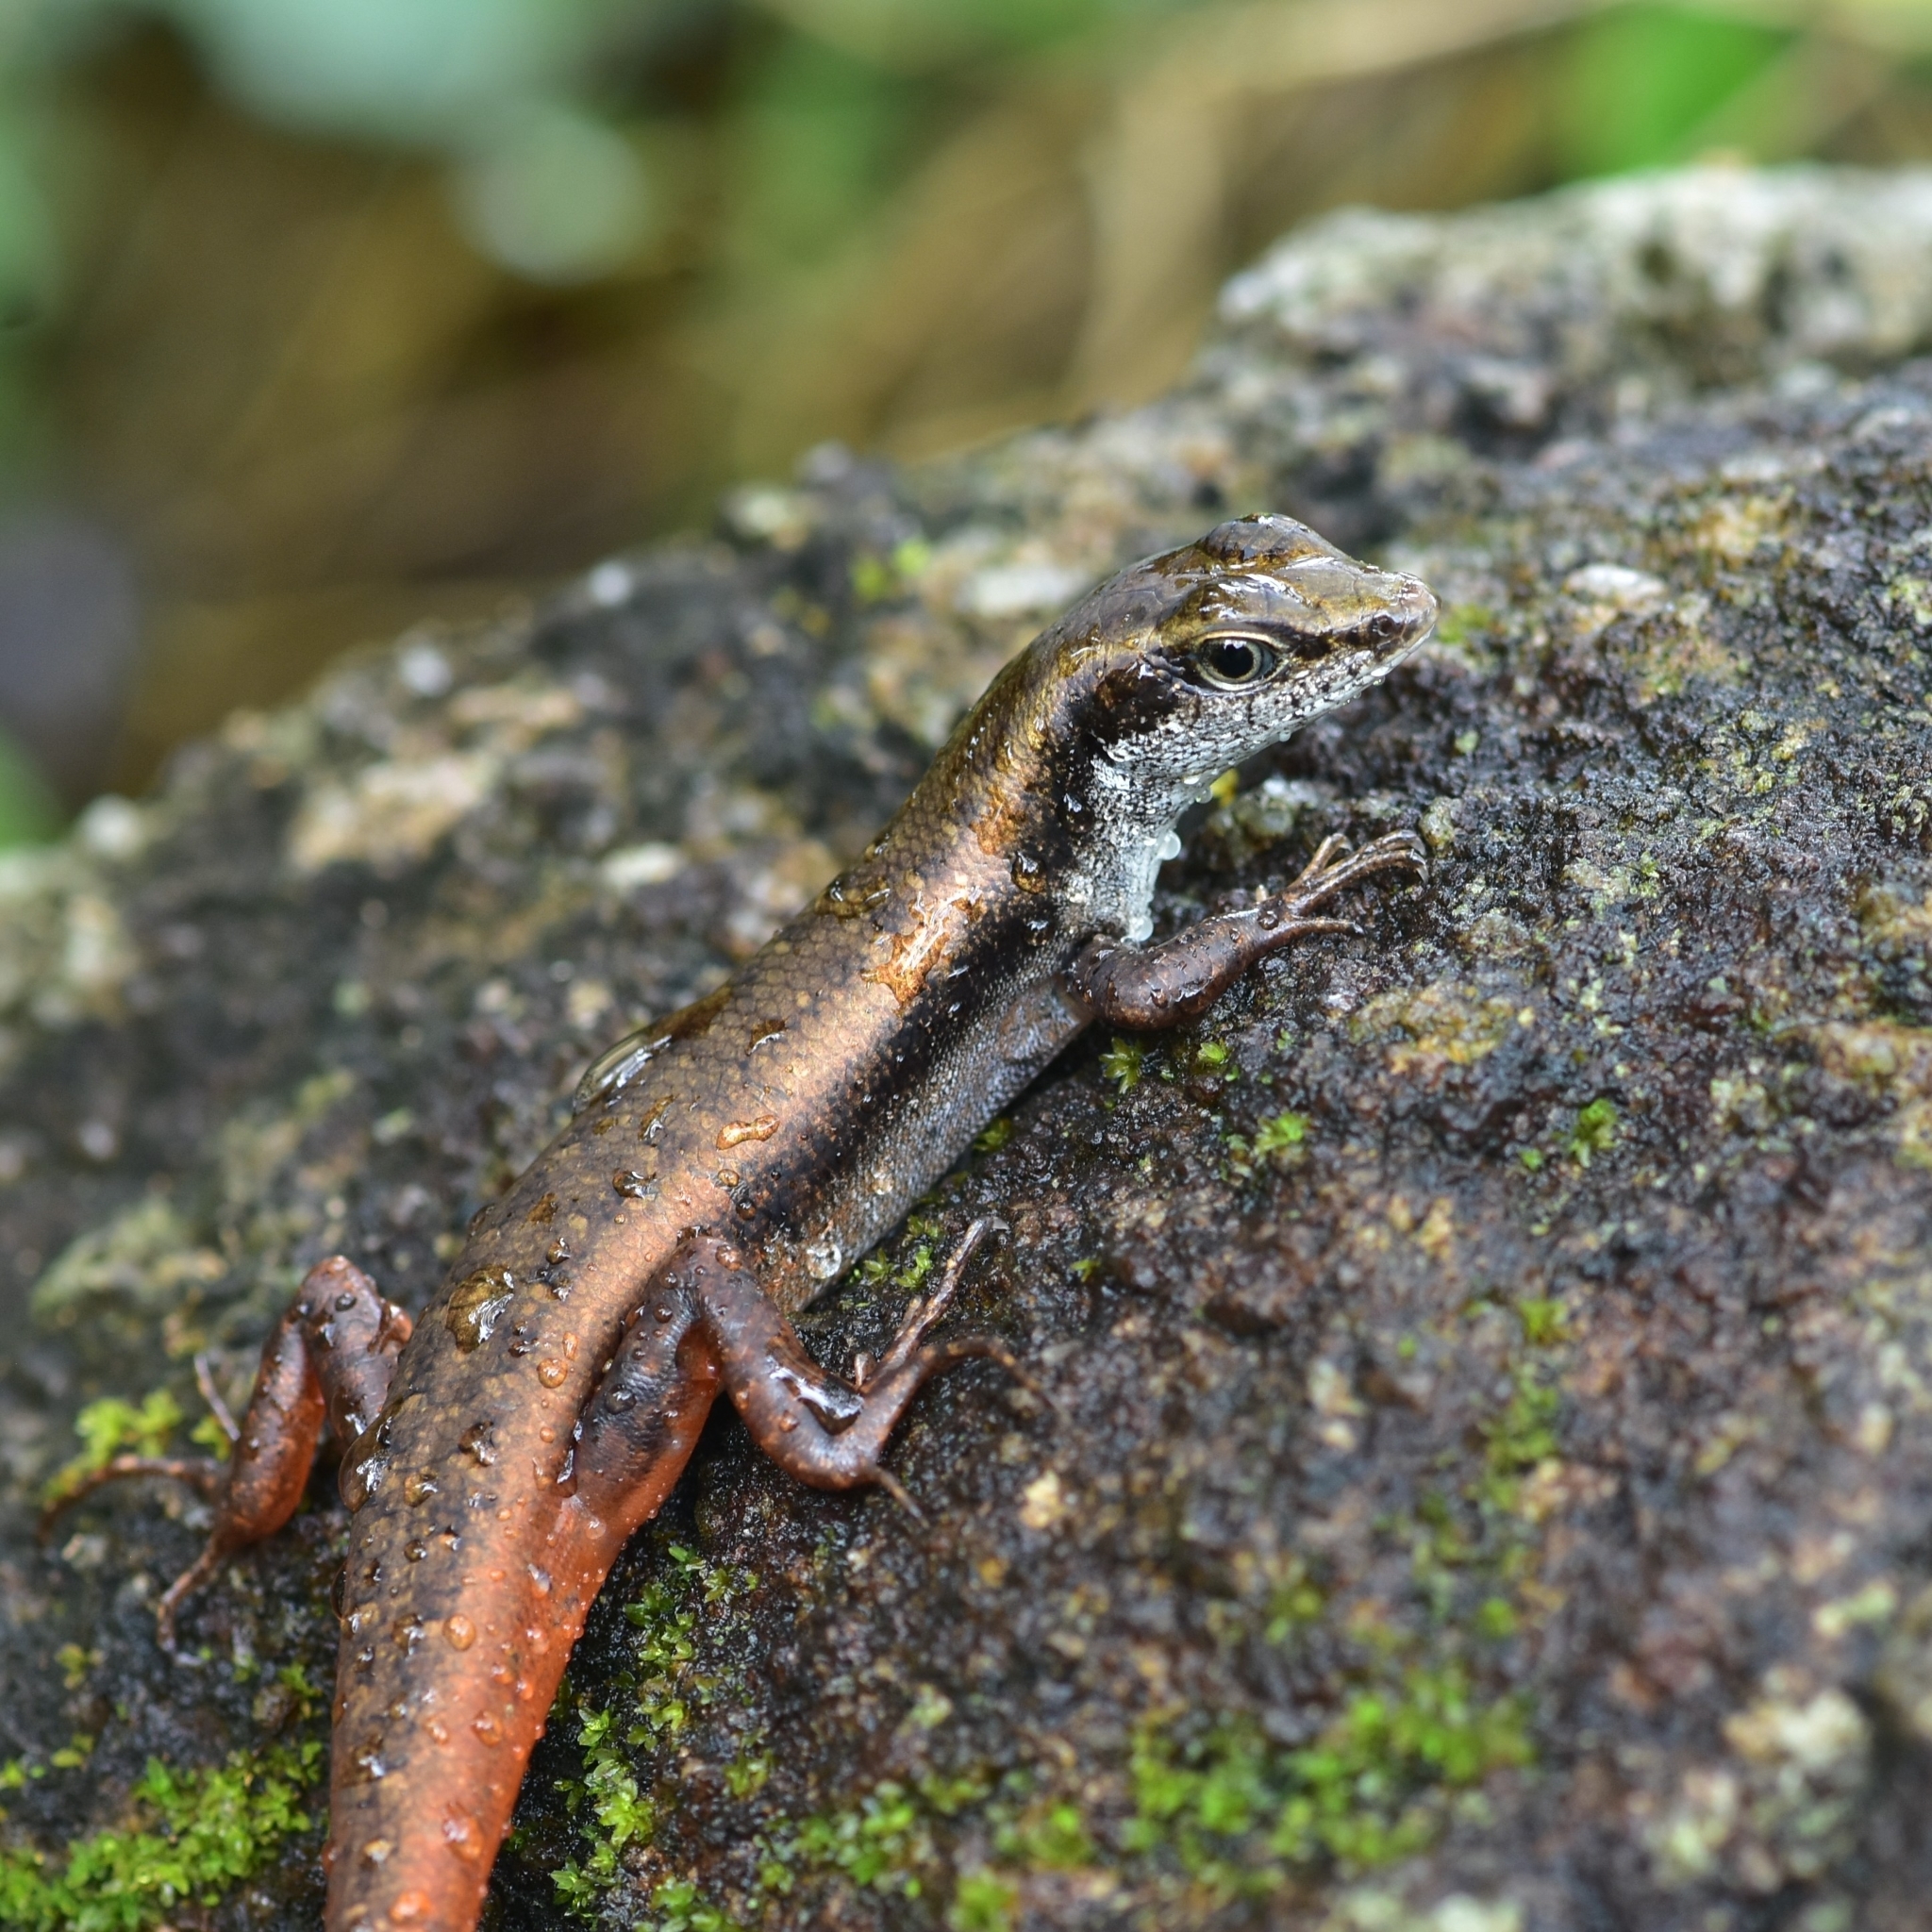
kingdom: Animalia
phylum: Chordata
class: Squamata
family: Scincidae
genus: Sphenomorphus
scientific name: Sphenomorphus dussumieri
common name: Dussumier's forest skink
